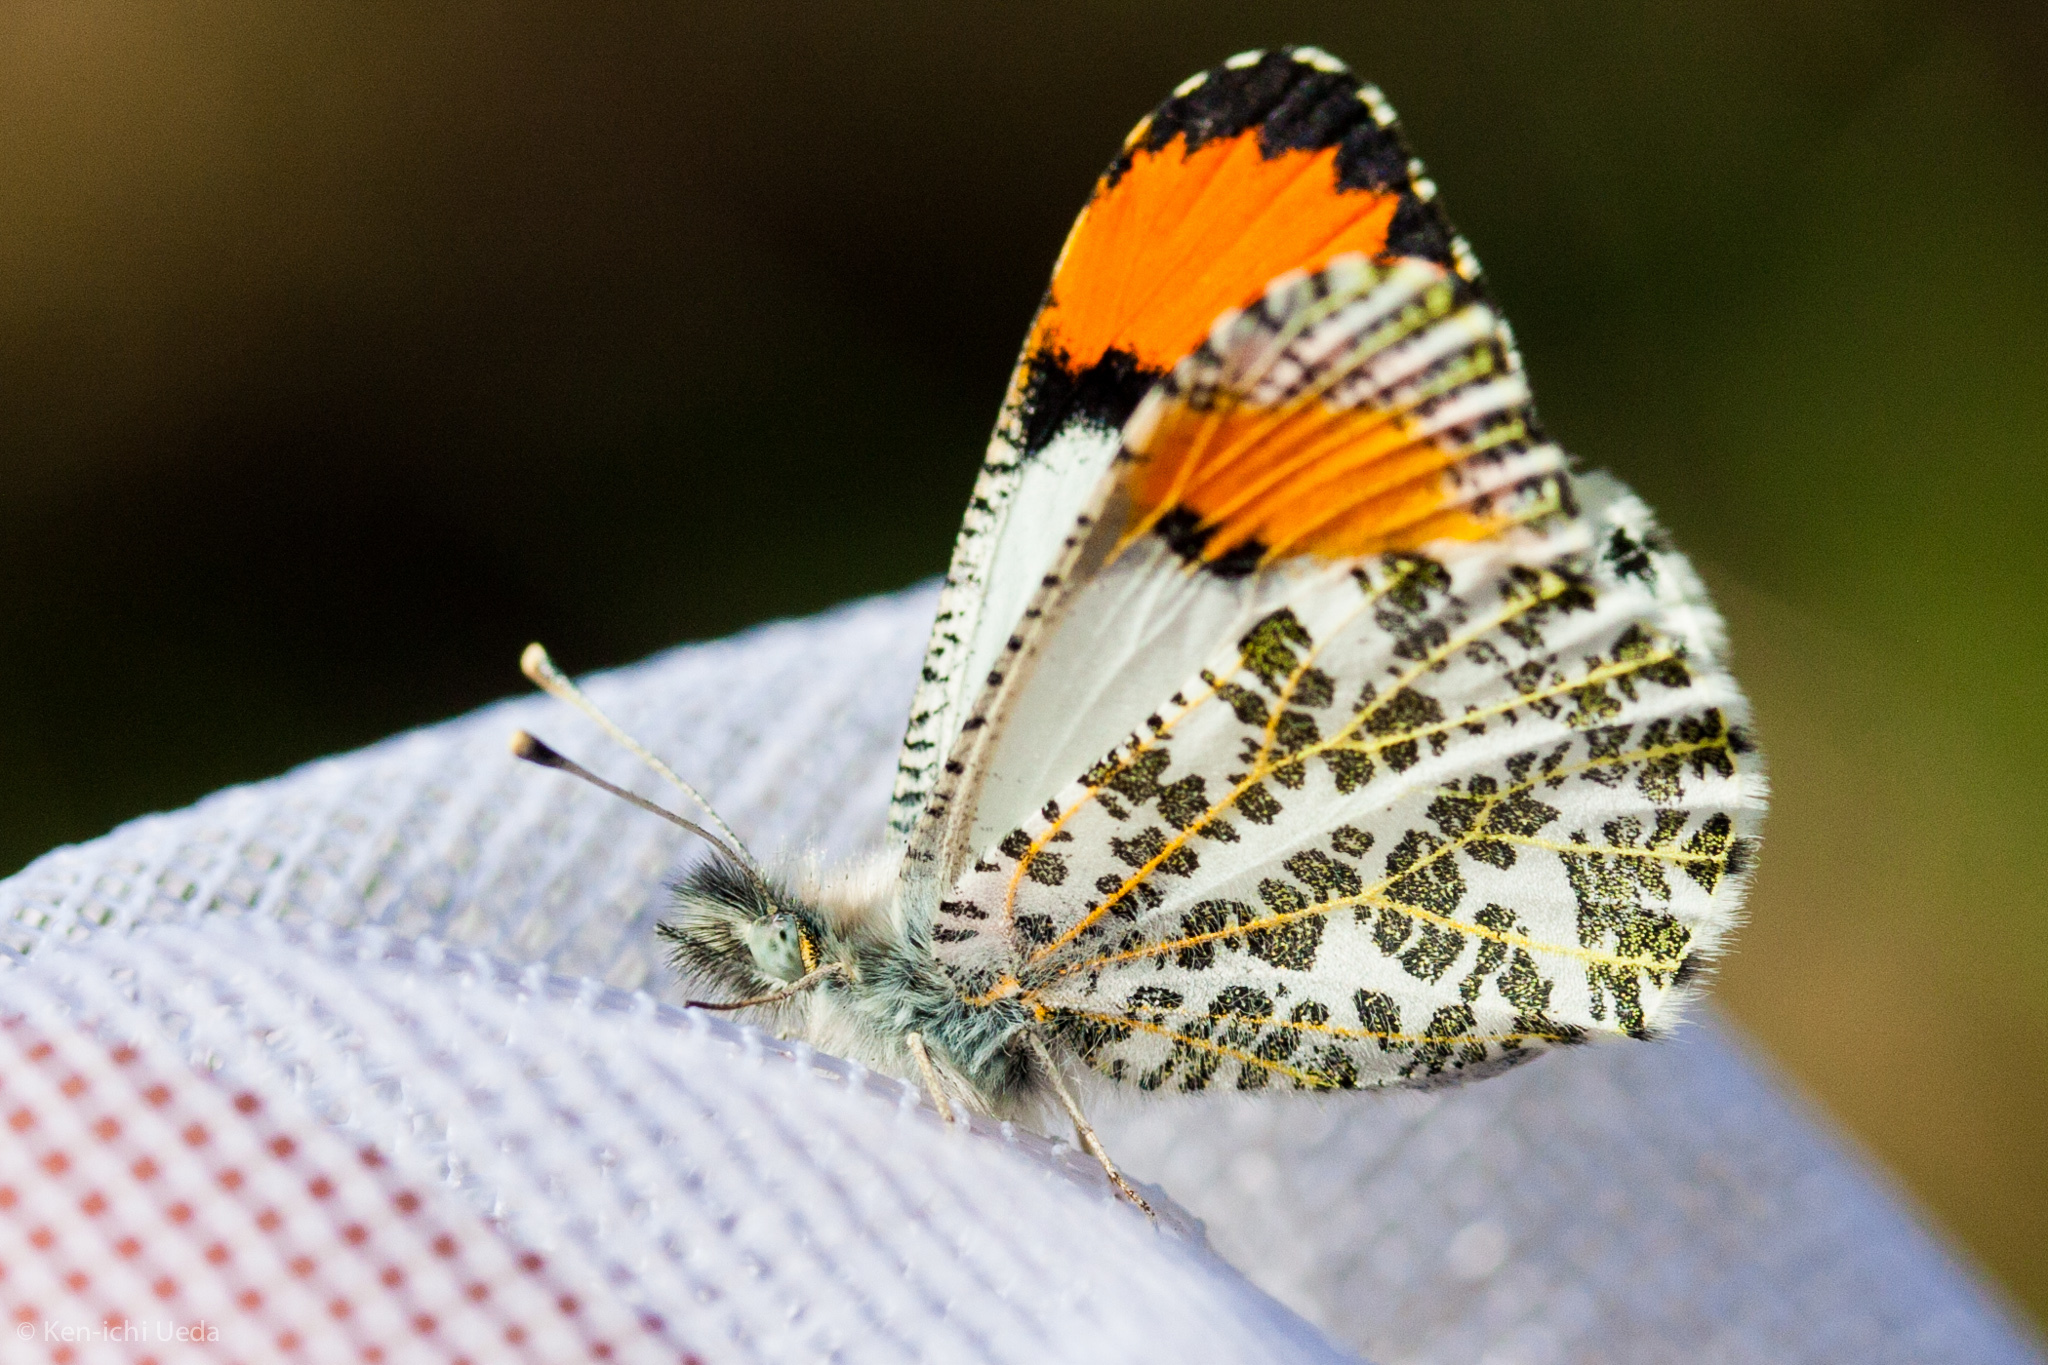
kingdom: Animalia
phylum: Arthropoda
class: Insecta
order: Lepidoptera
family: Pieridae
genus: Anthocharis
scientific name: Anthocharis sara
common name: Sara's orangetip
